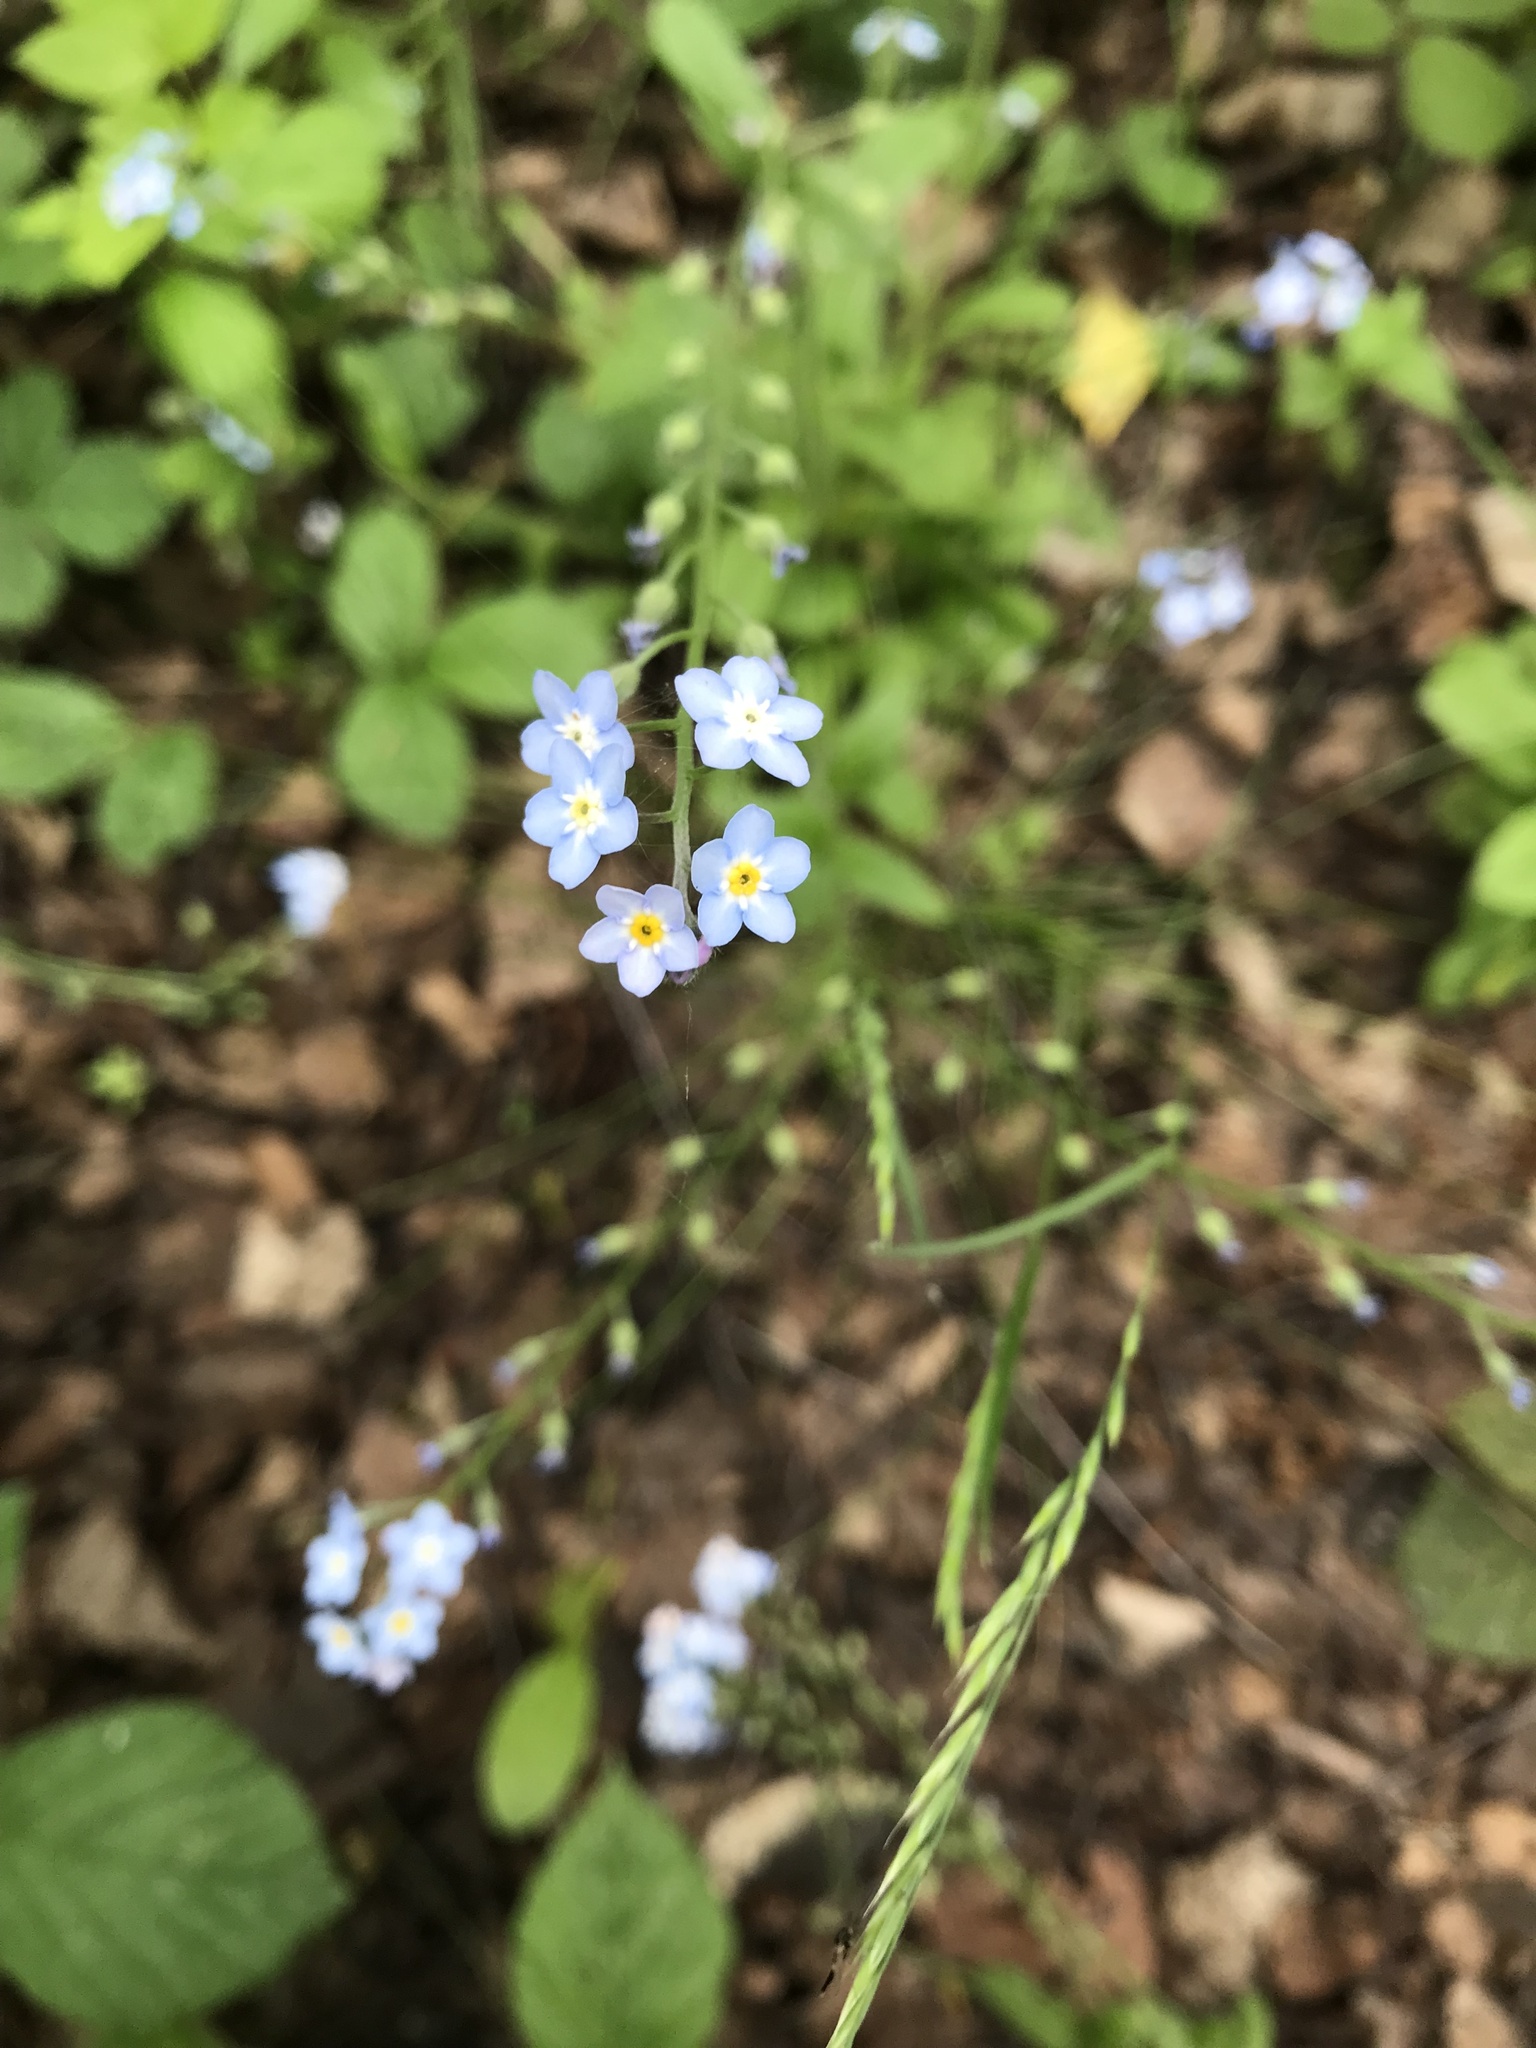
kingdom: Plantae
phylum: Tracheophyta
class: Magnoliopsida
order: Boraginales
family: Boraginaceae
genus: Myosotis
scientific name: Myosotis sylvatica
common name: Wood forget-me-not
